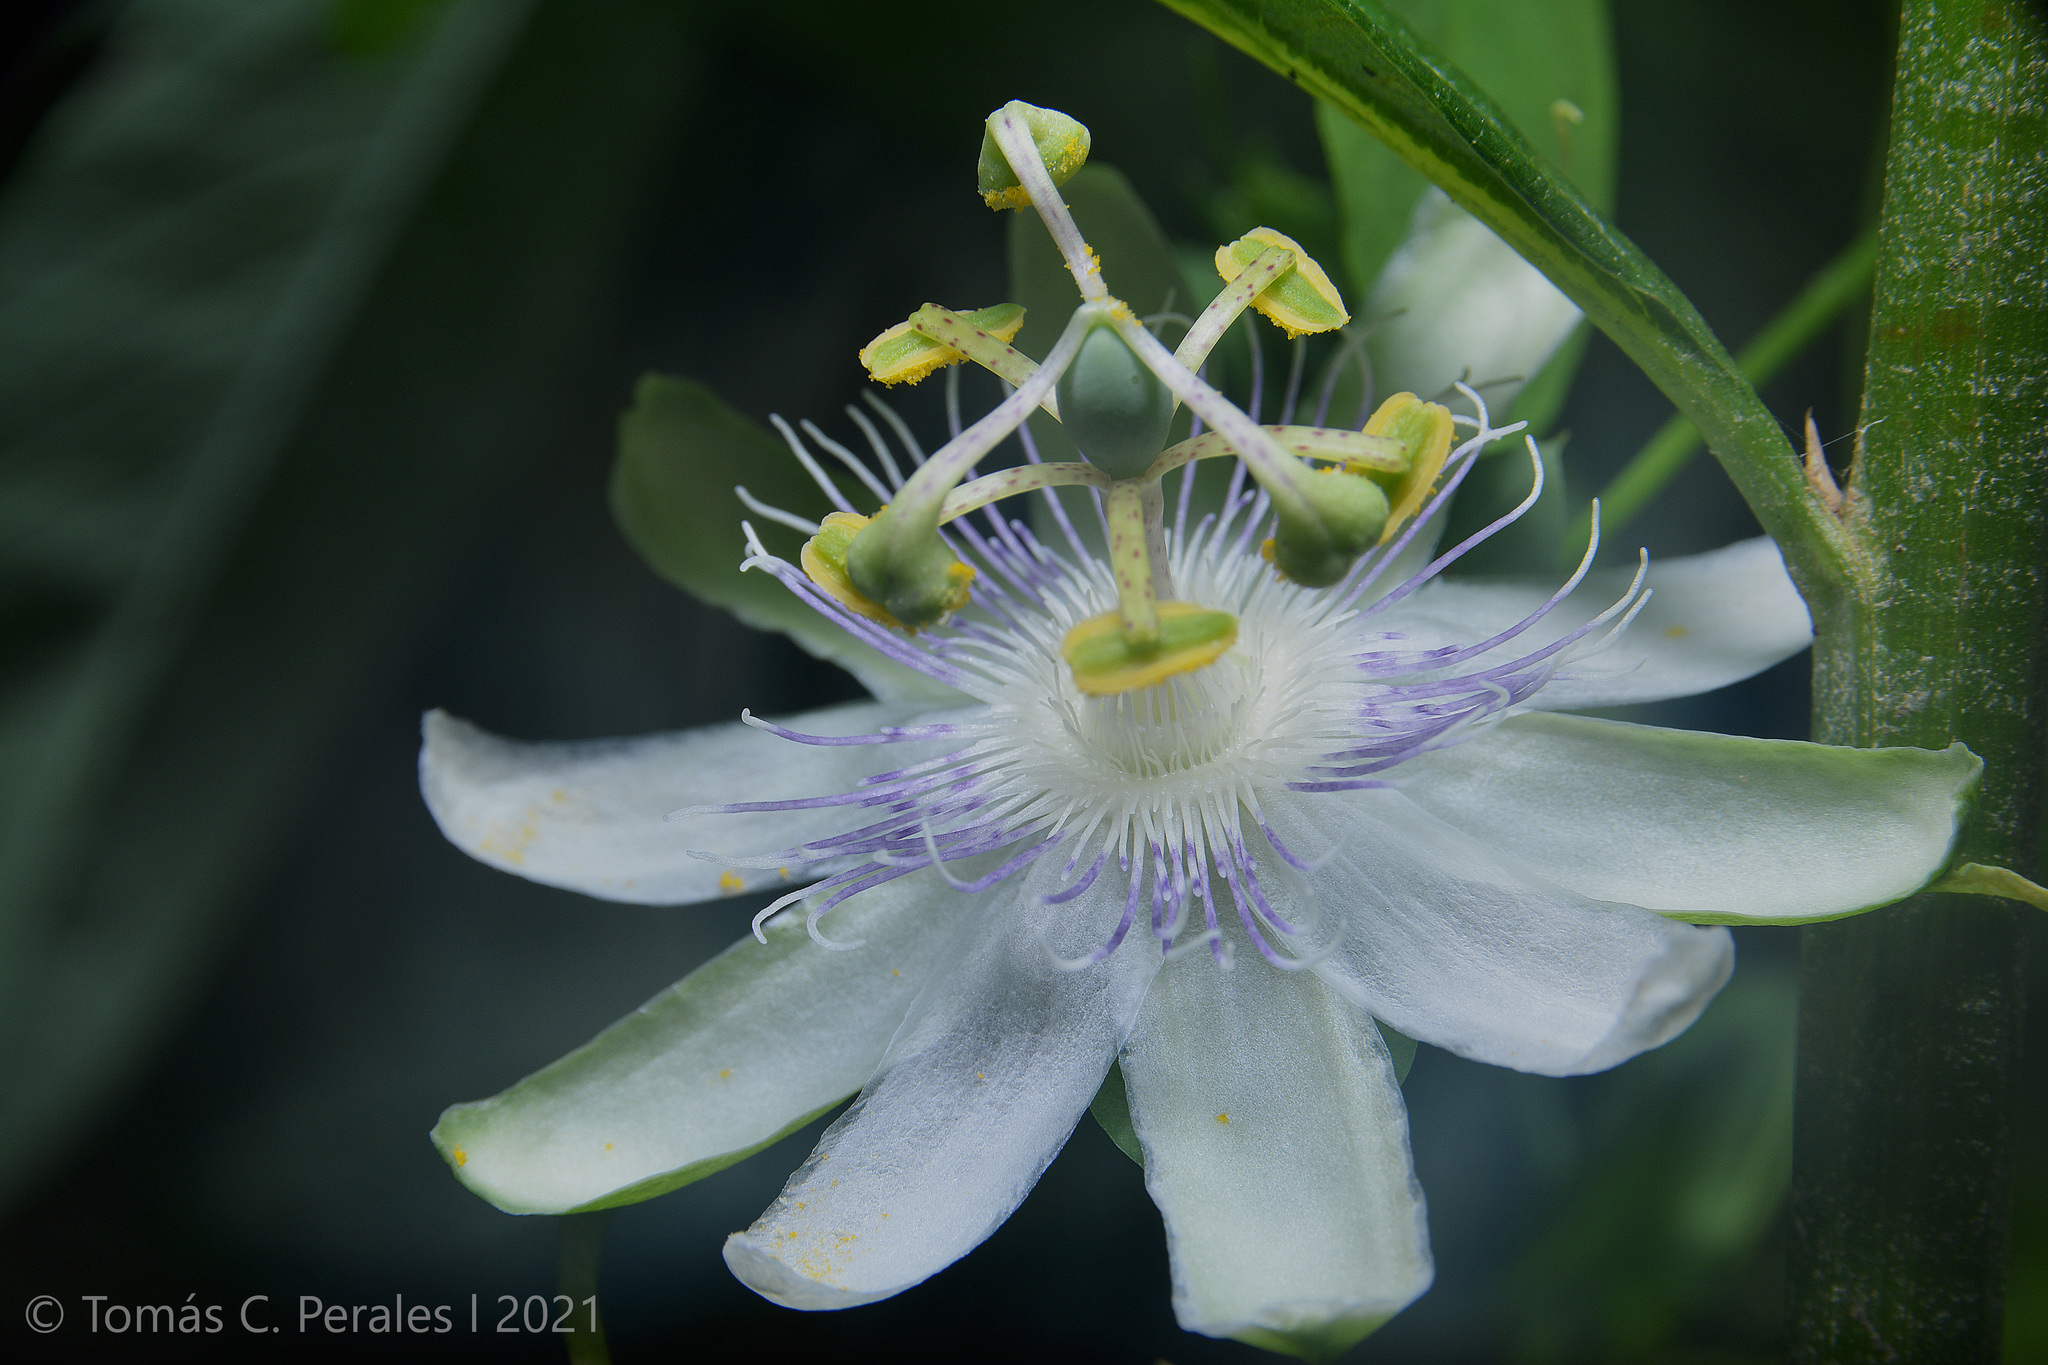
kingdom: Plantae
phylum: Tracheophyta
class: Magnoliopsida
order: Malpighiales
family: Passifloraceae
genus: Passiflora
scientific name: Passiflora tenuifila
